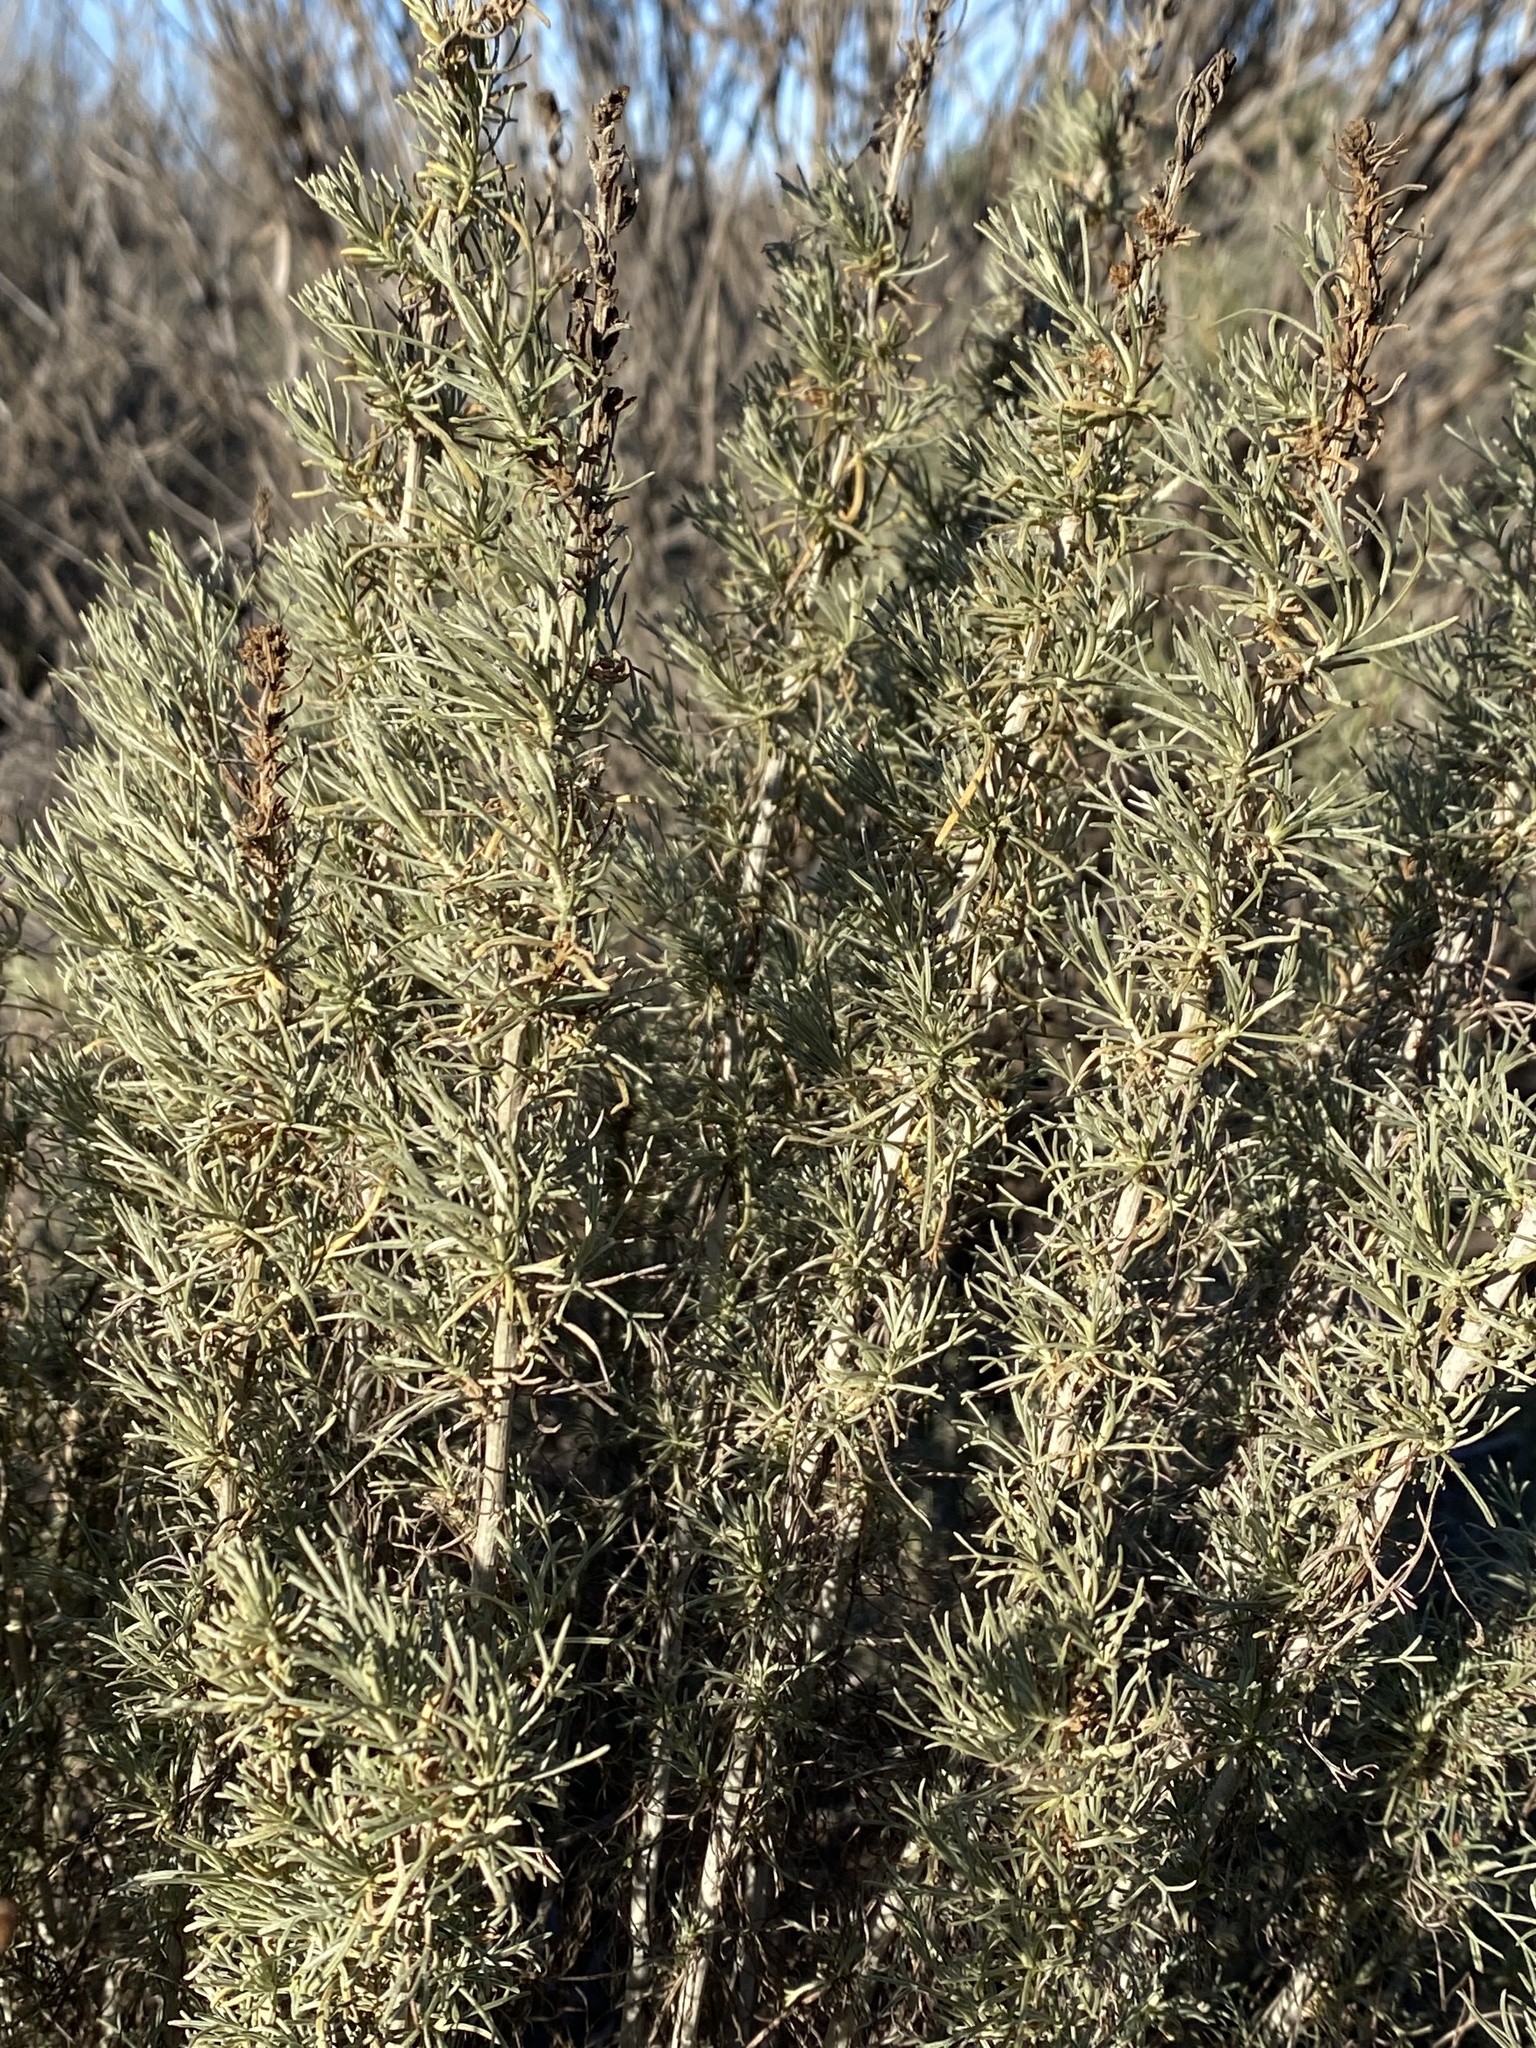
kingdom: Plantae
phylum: Tracheophyta
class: Magnoliopsida
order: Asterales
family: Asteraceae
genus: Artemisia
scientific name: Artemisia californica
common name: California sagebrush
